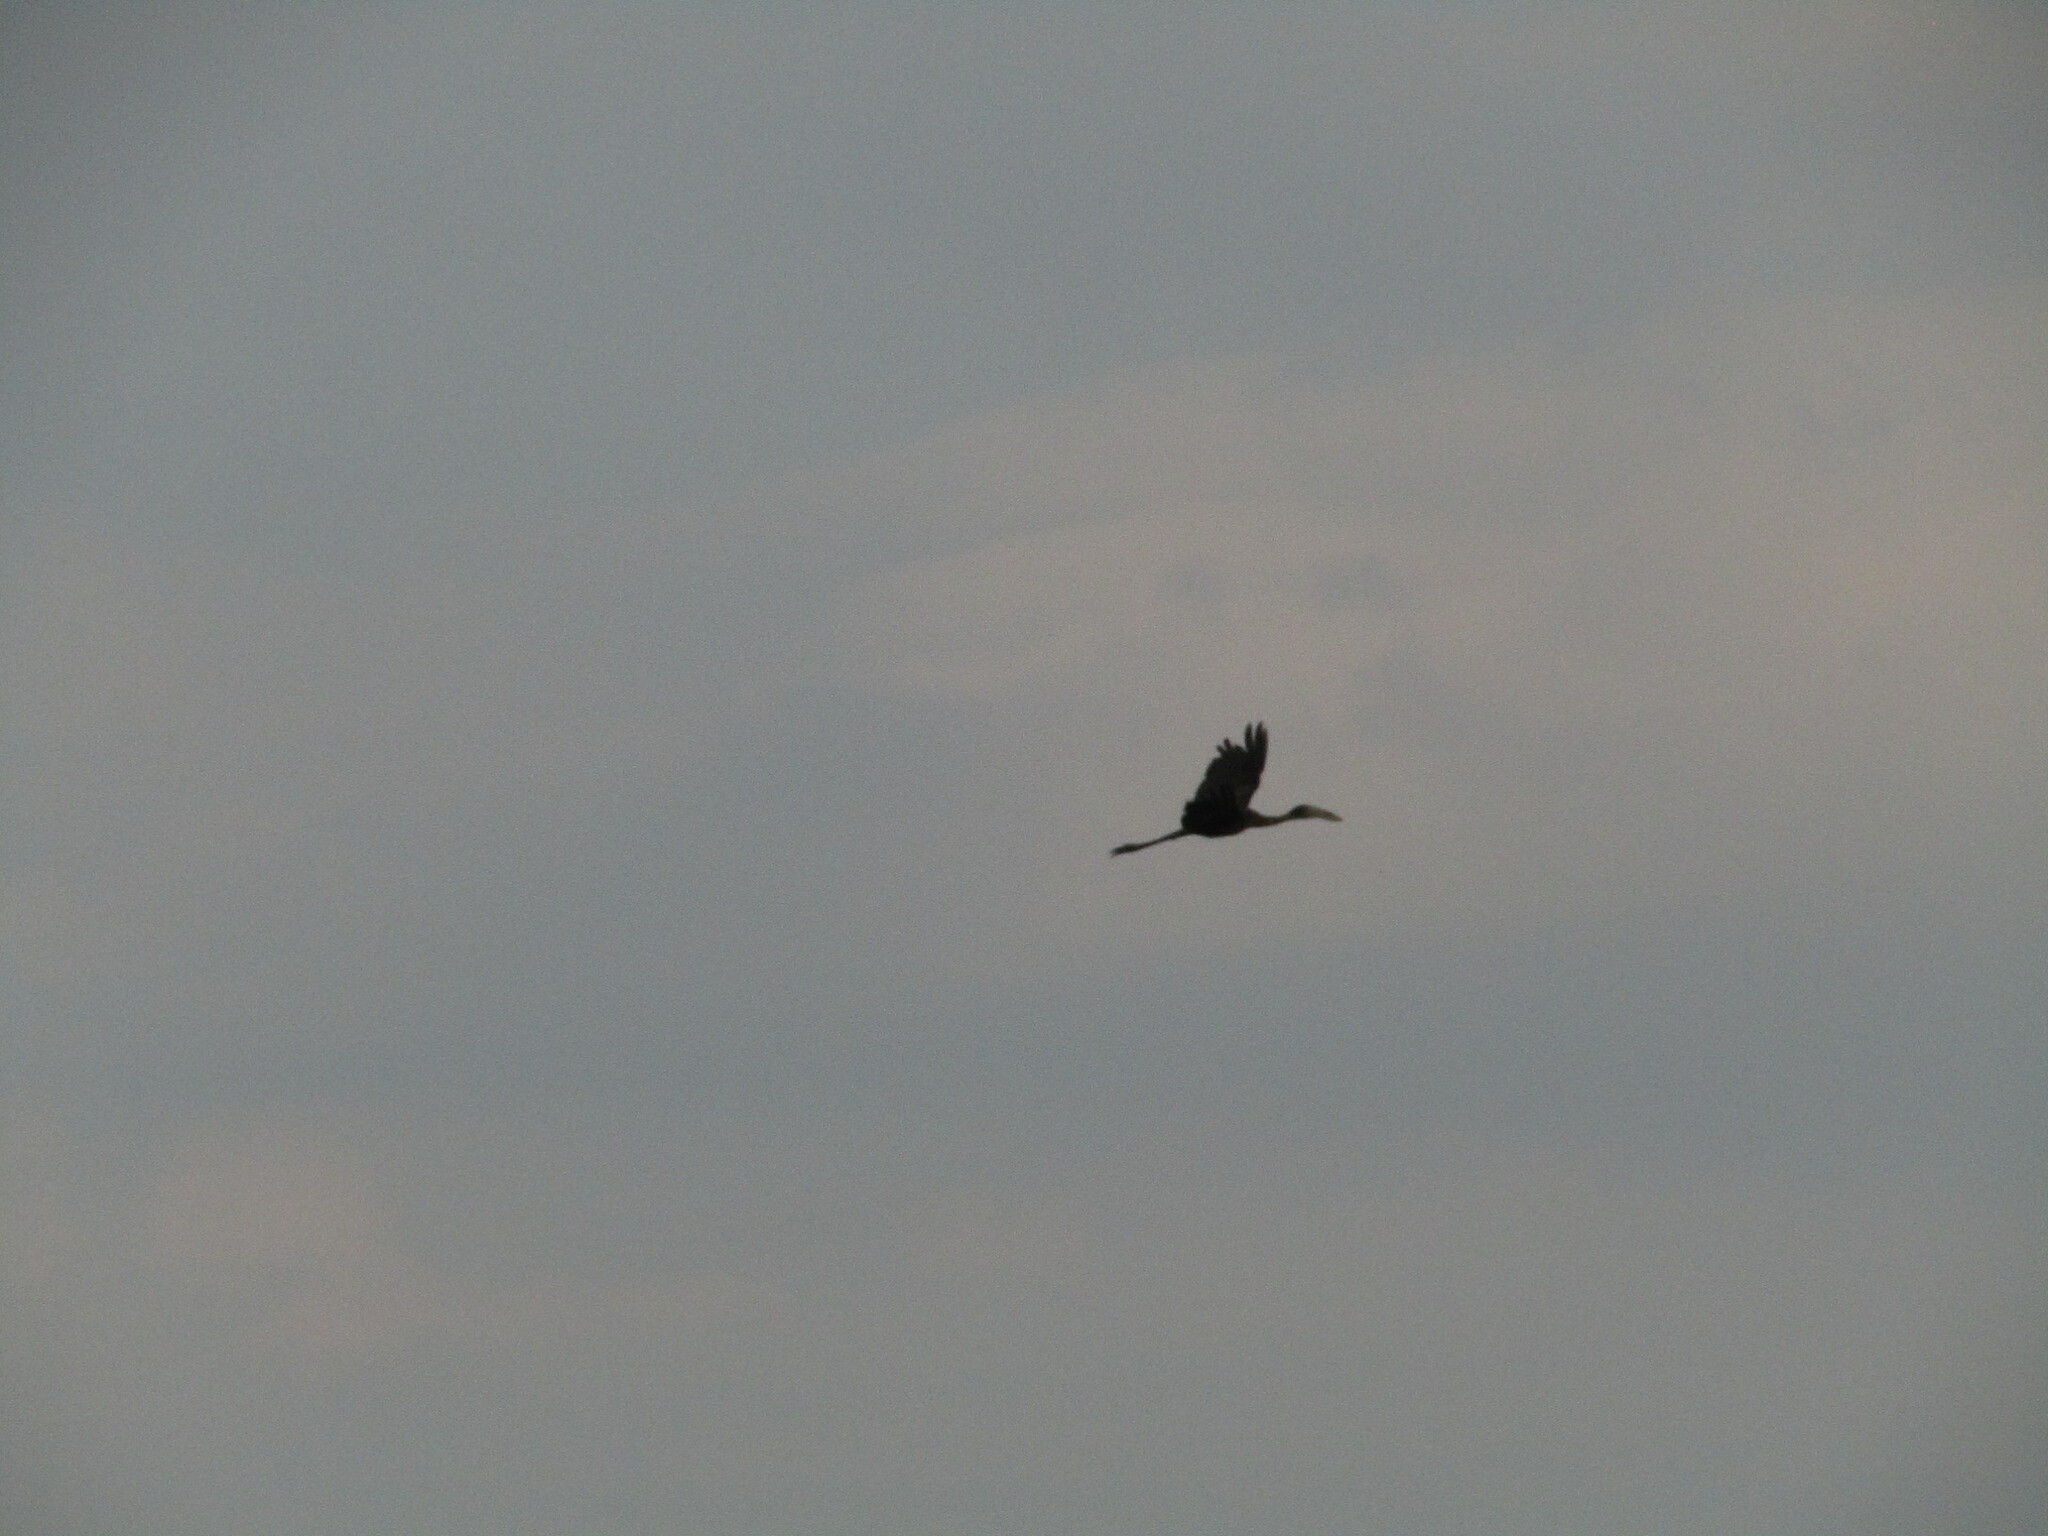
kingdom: Animalia
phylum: Chordata
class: Aves
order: Ciconiiformes
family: Ciconiidae
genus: Anastomus
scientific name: Anastomus lamelligerus
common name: African openbill
